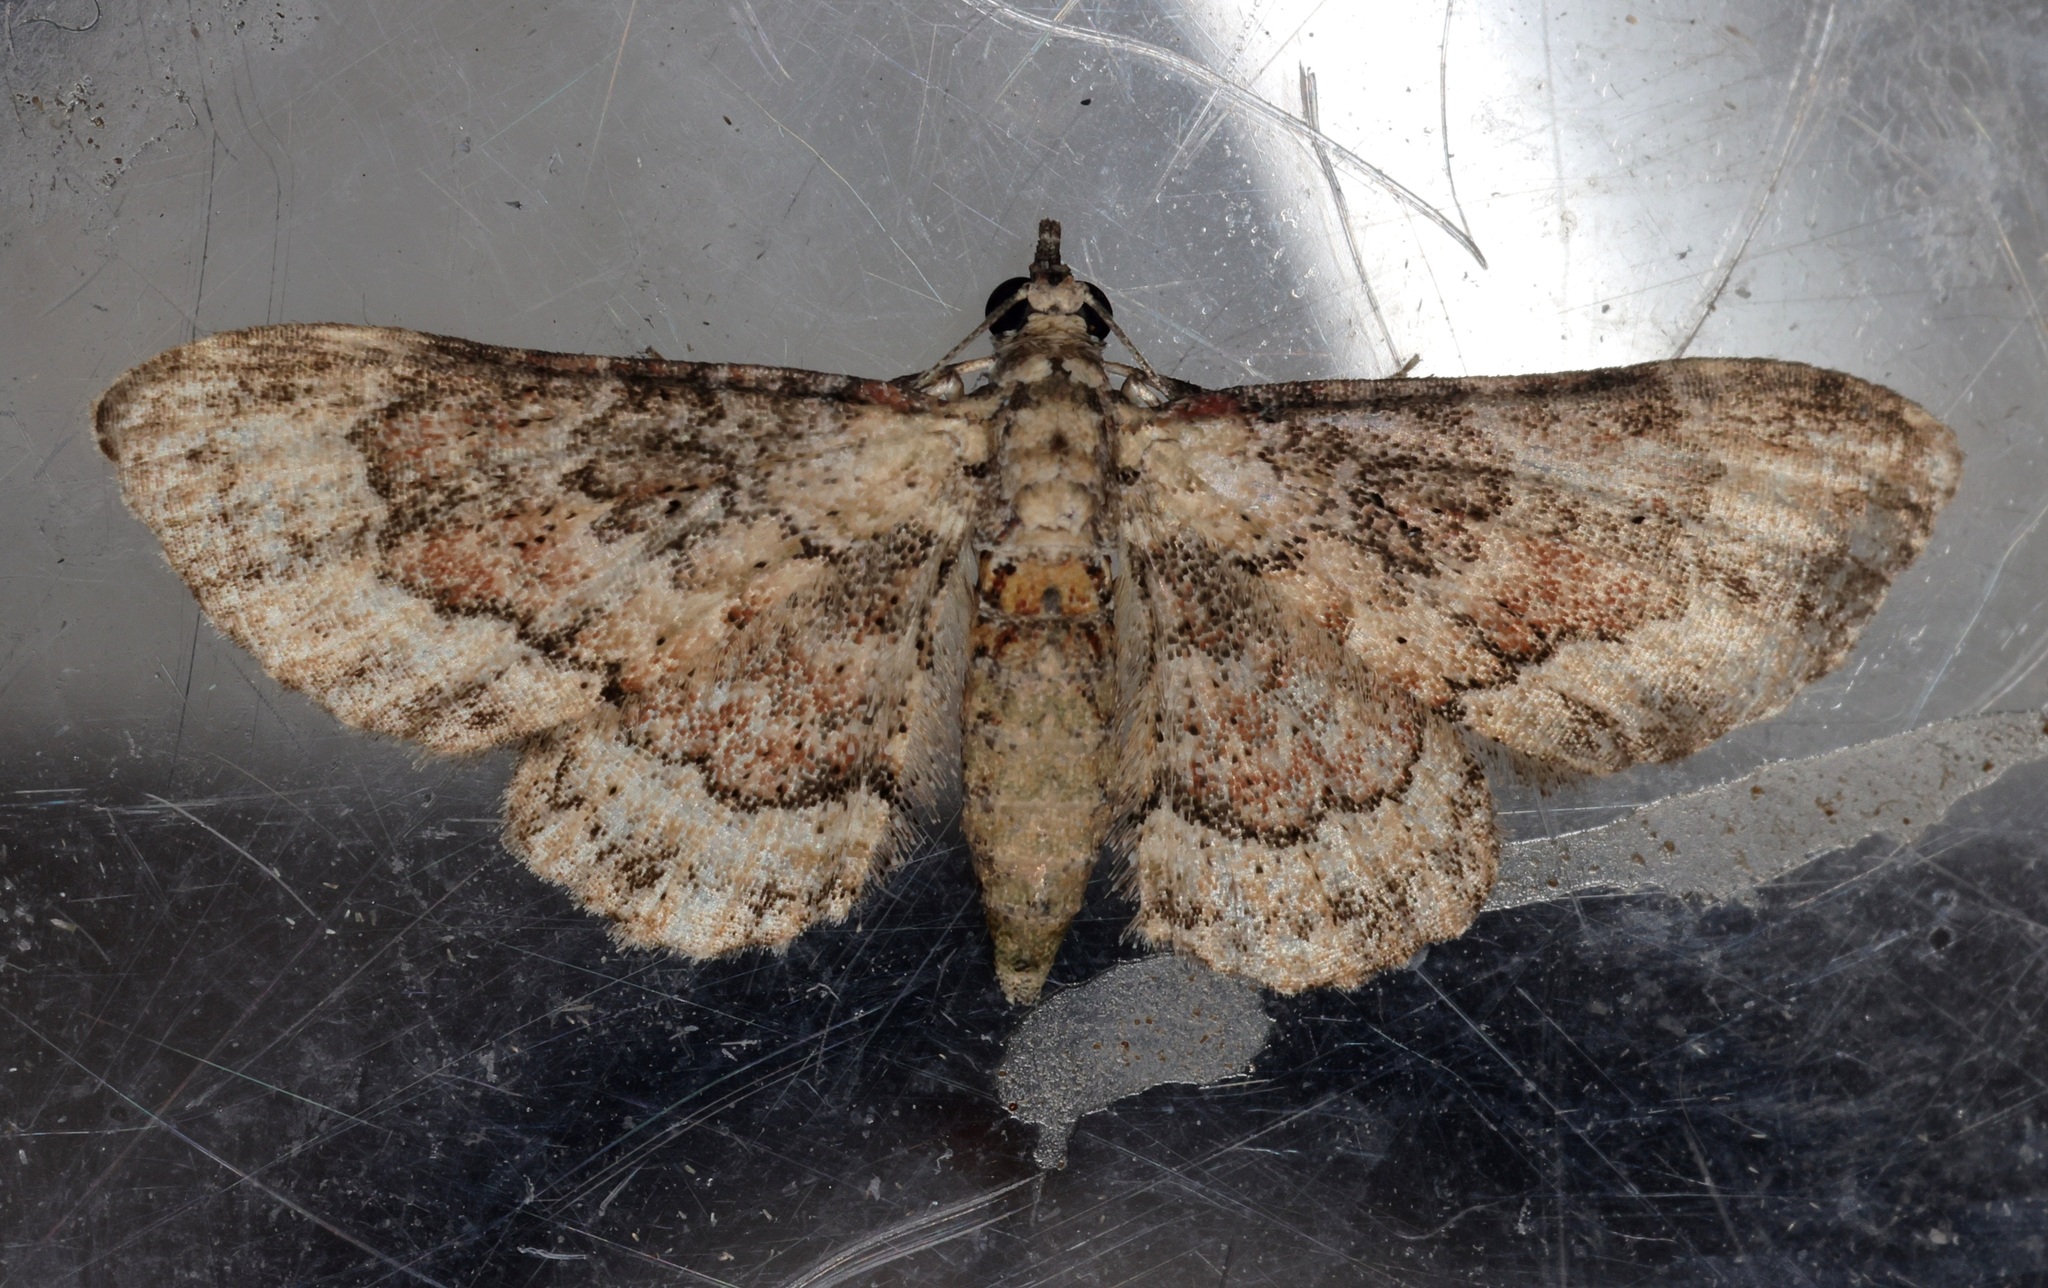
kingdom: Animalia
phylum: Arthropoda
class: Insecta
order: Lepidoptera
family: Geometridae
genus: Gymnoscelis
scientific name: Gymnoscelis taprobanica
